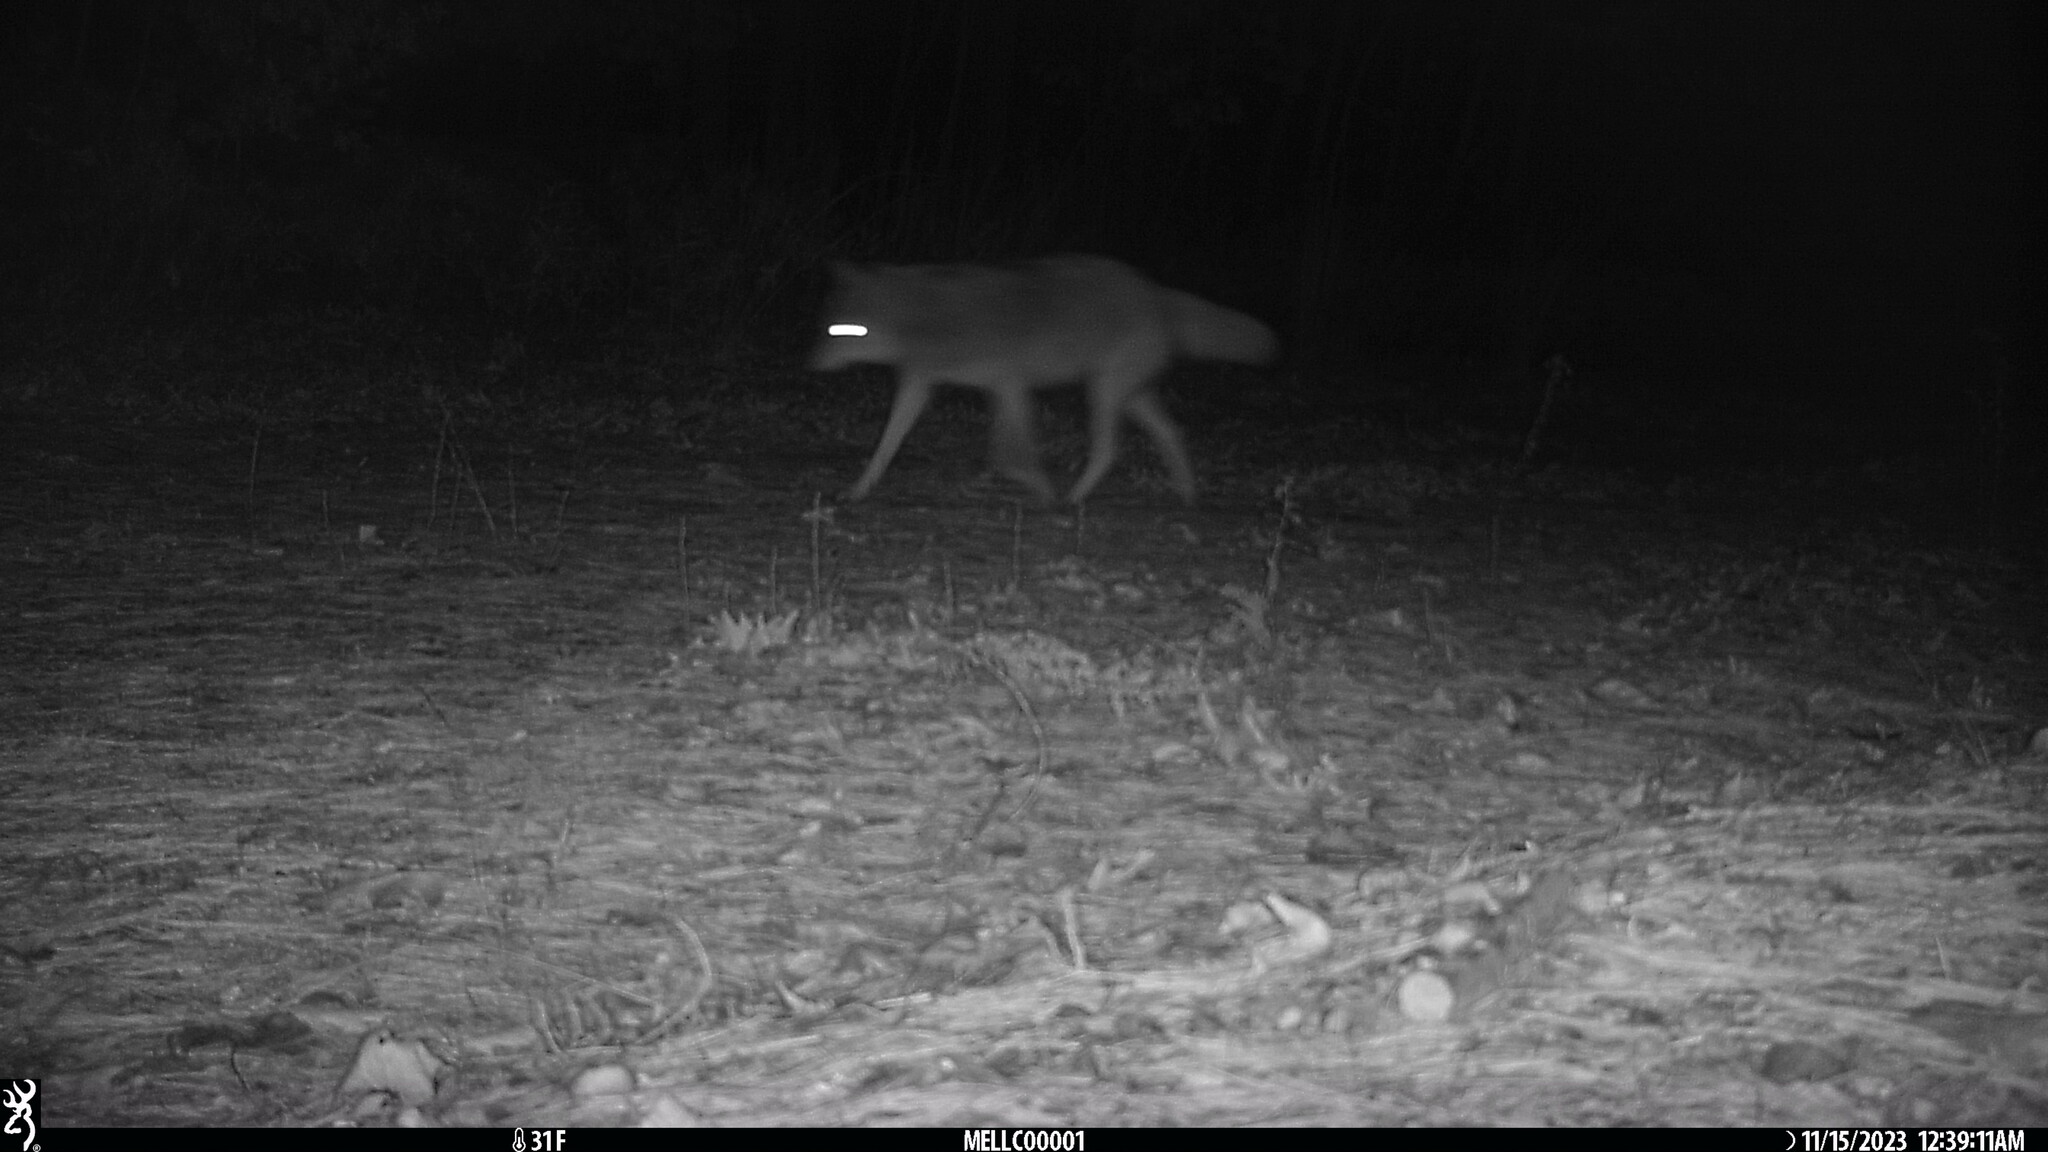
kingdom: Animalia
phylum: Chordata
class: Mammalia
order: Carnivora
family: Canidae
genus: Canis
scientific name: Canis latrans
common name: Coyote
